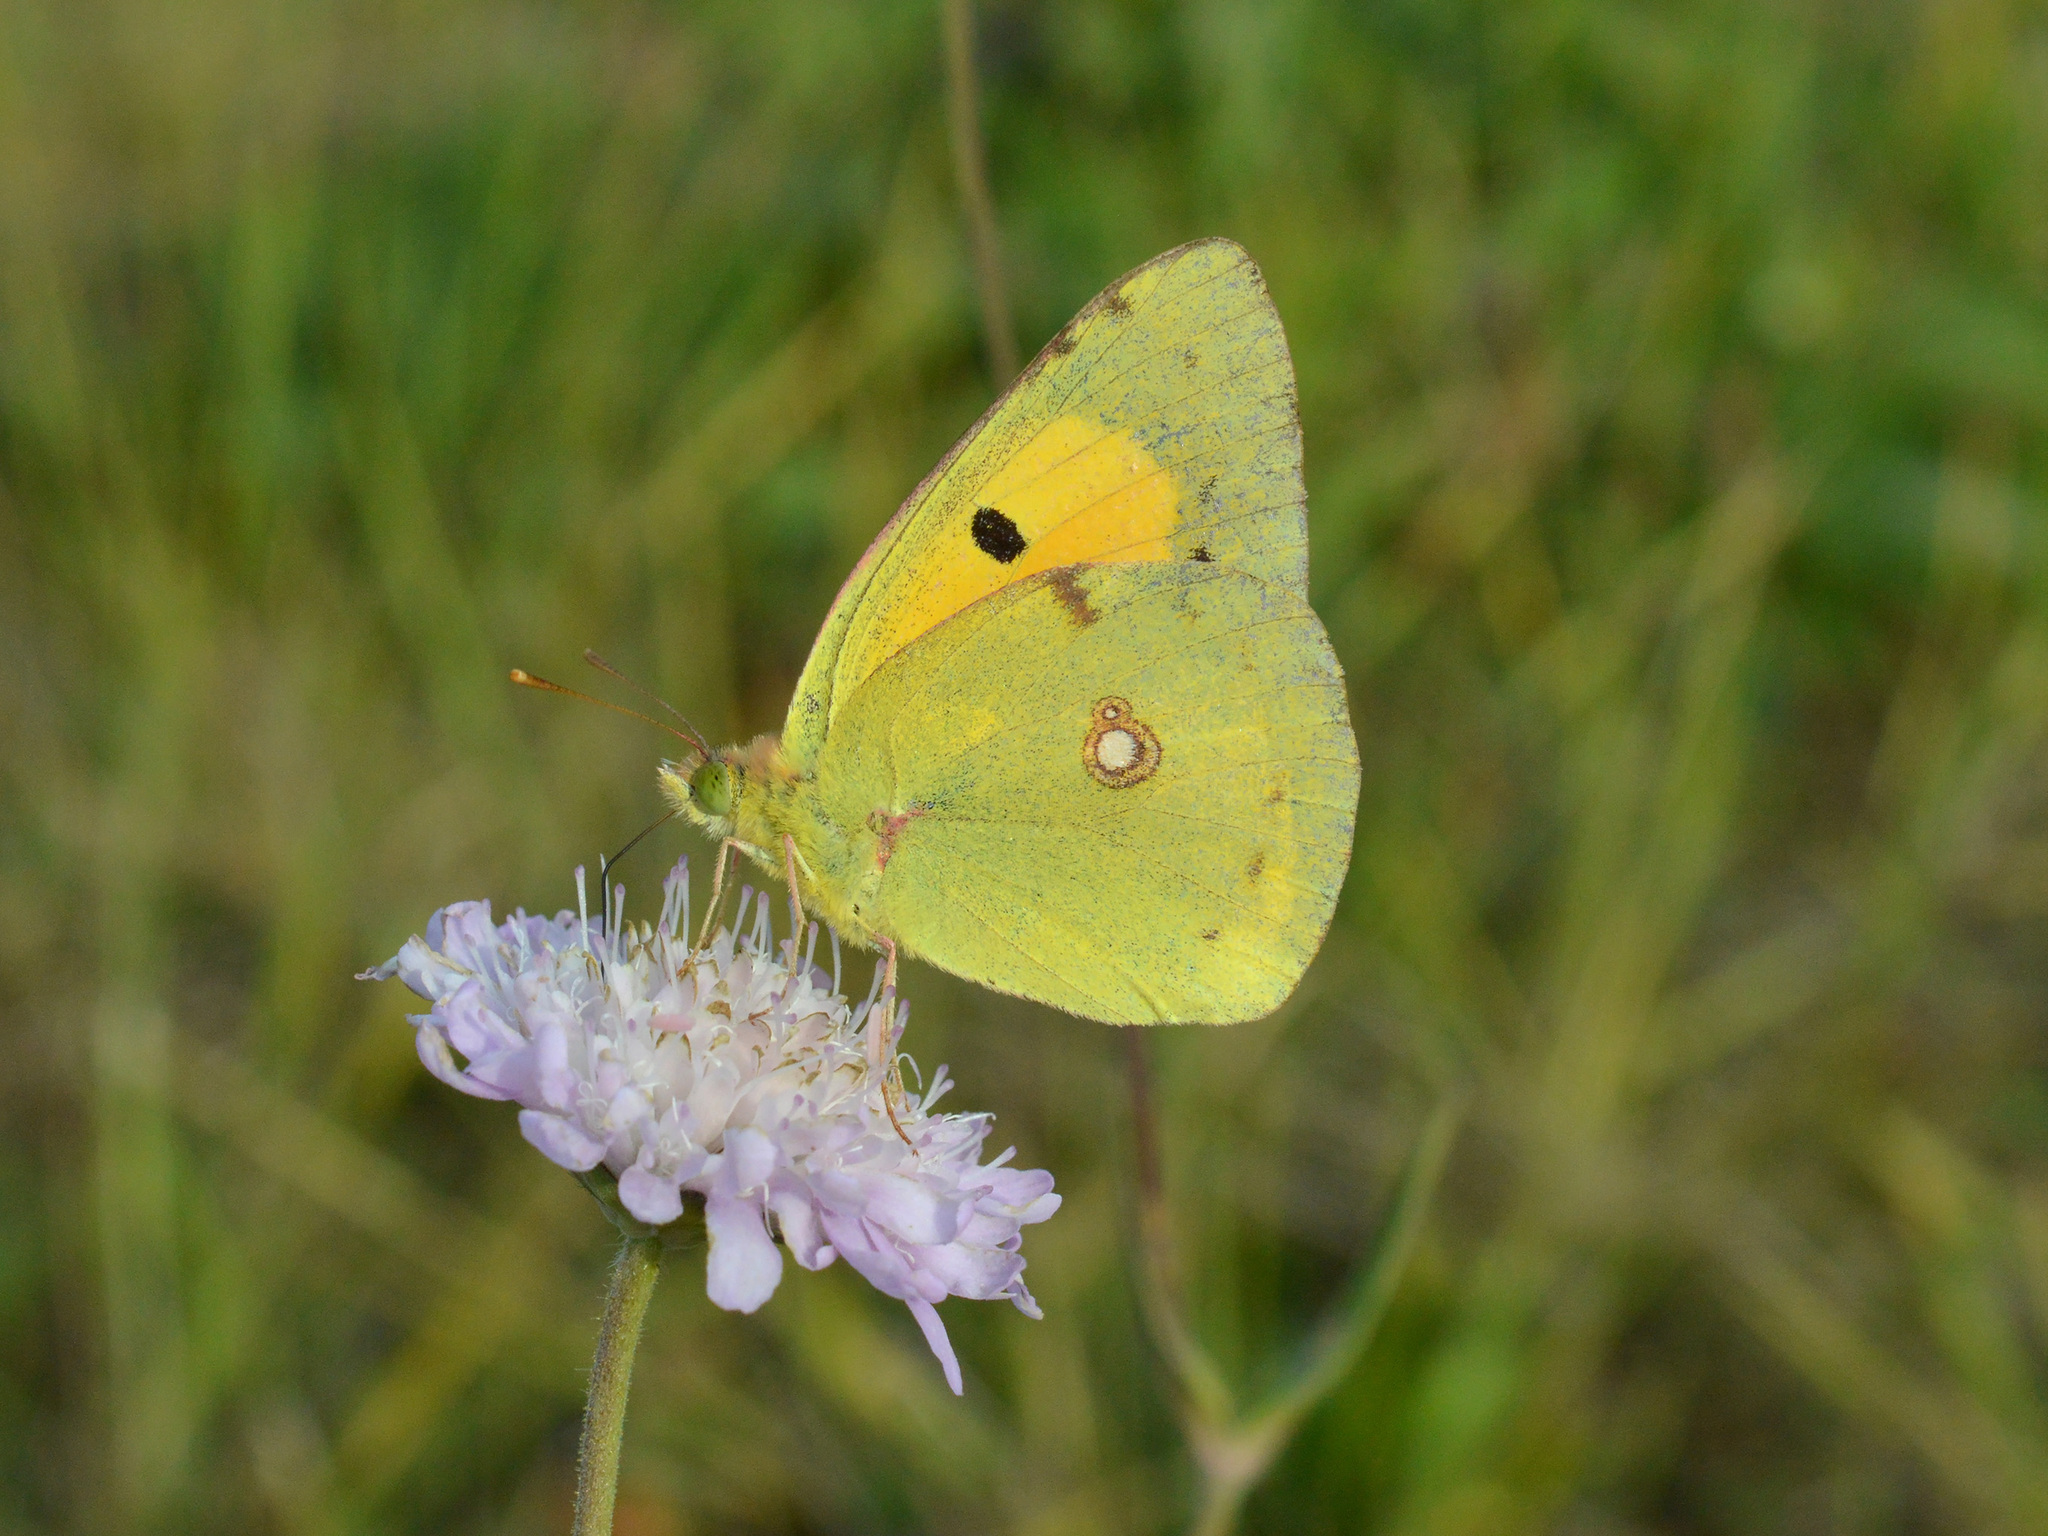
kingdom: Animalia
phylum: Arthropoda
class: Insecta
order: Lepidoptera
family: Pieridae
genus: Colias
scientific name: Colias croceus
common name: Clouded yellow
